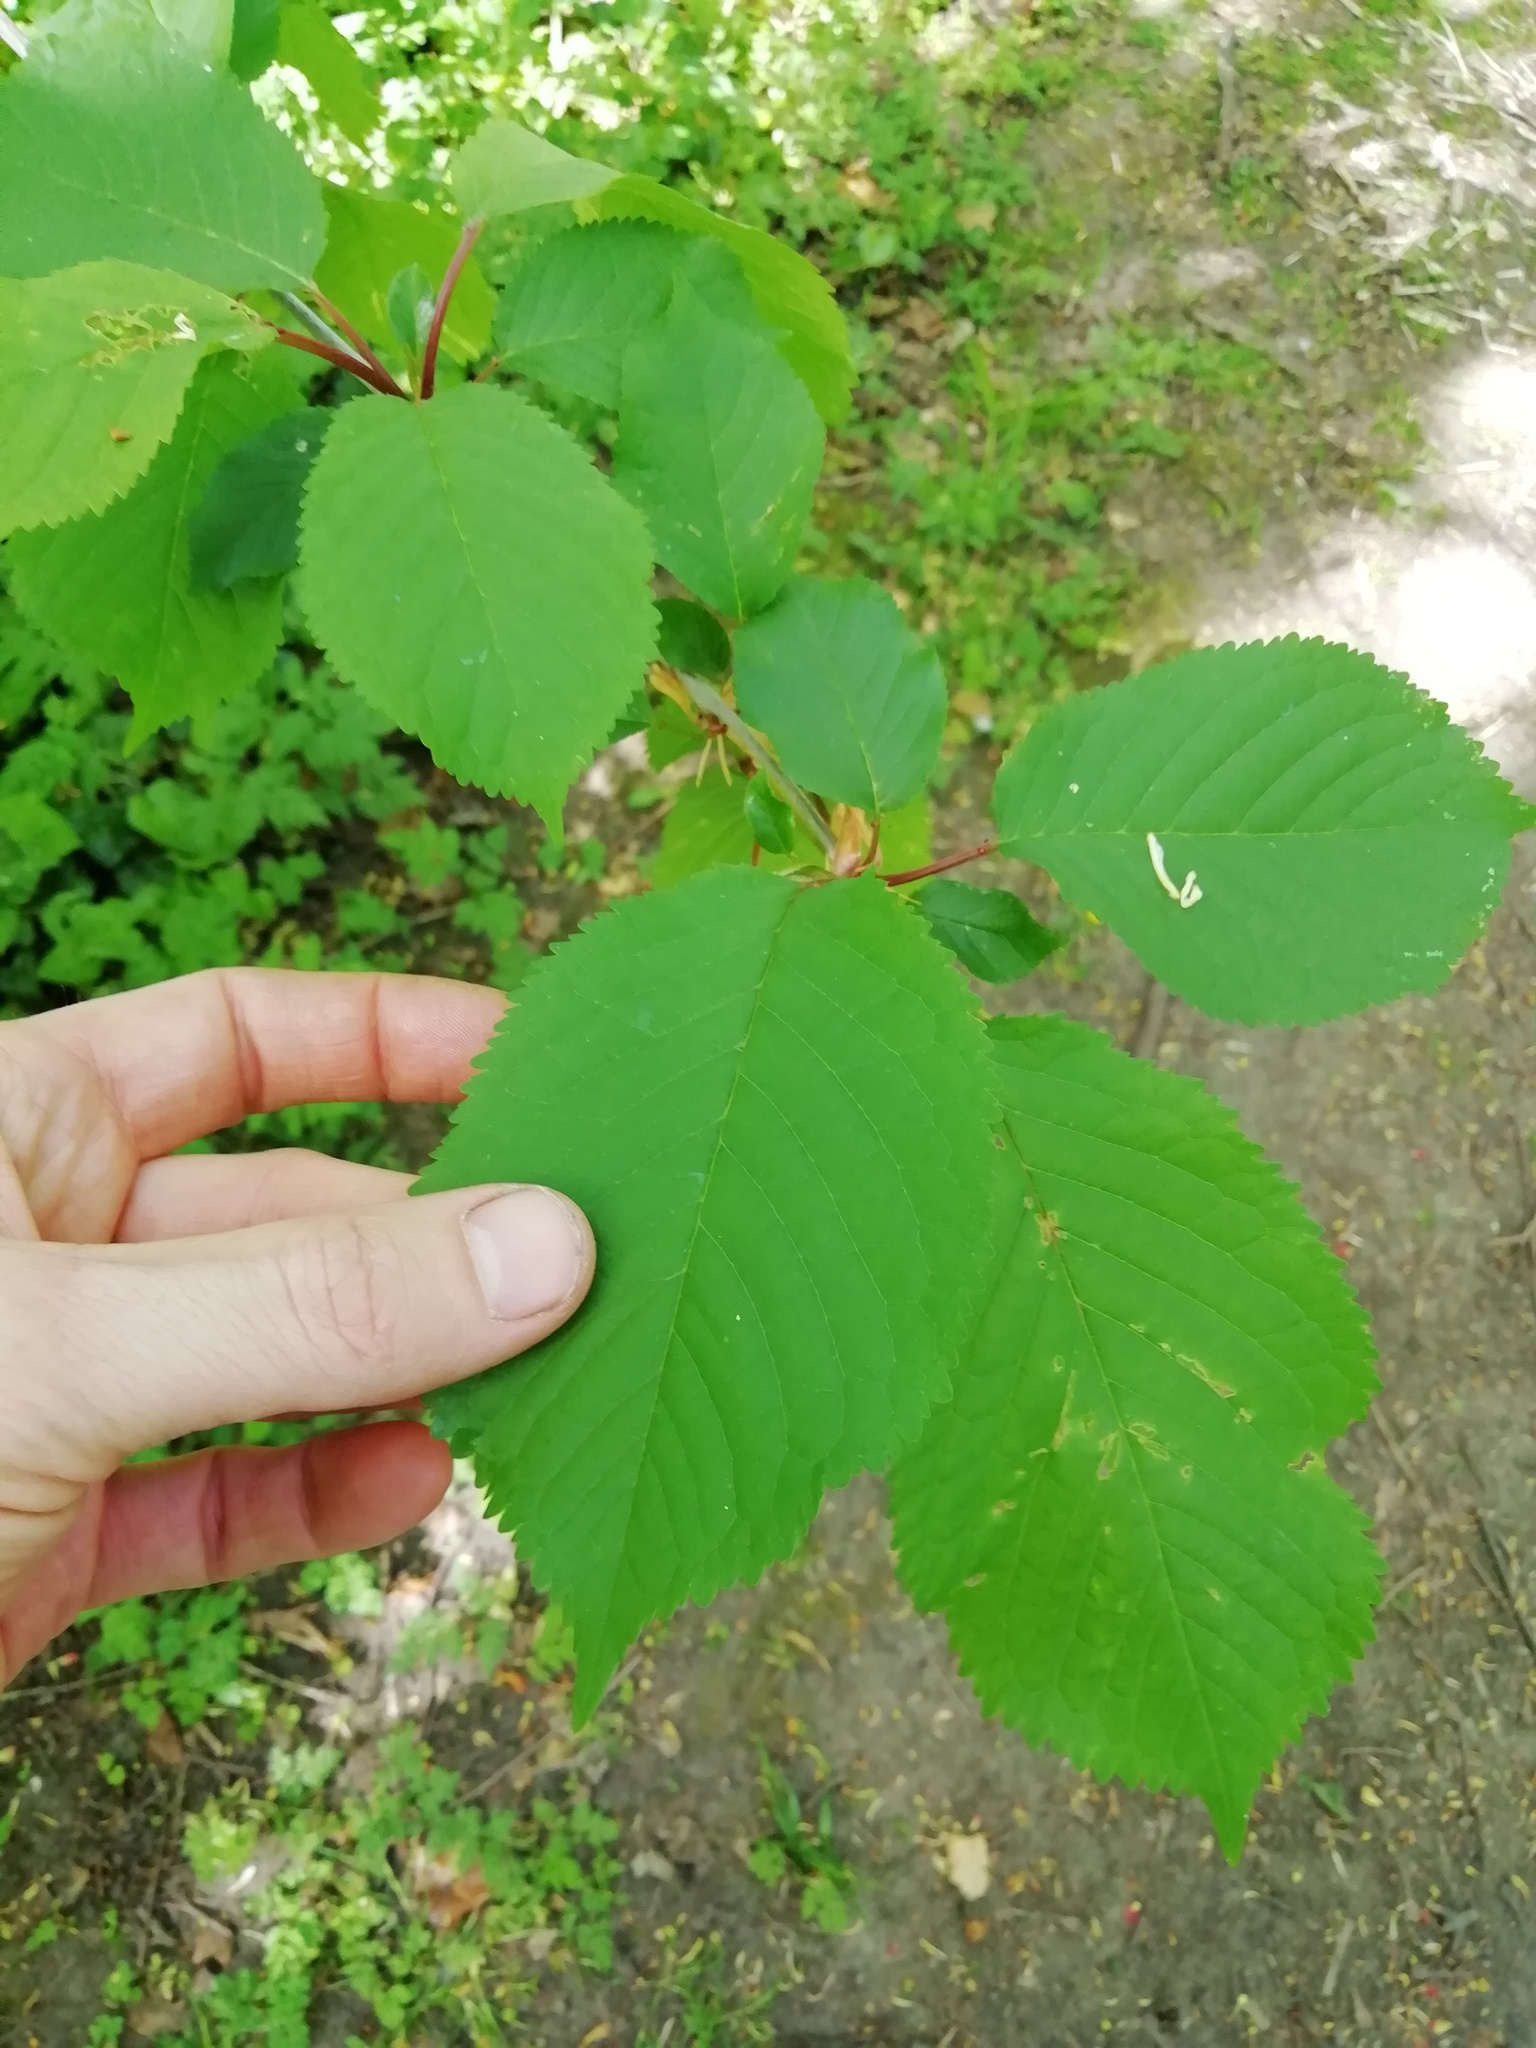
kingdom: Plantae
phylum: Tracheophyta
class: Magnoliopsida
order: Rosales
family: Rosaceae
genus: Prunus
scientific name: Prunus avium
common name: Sweet cherry
